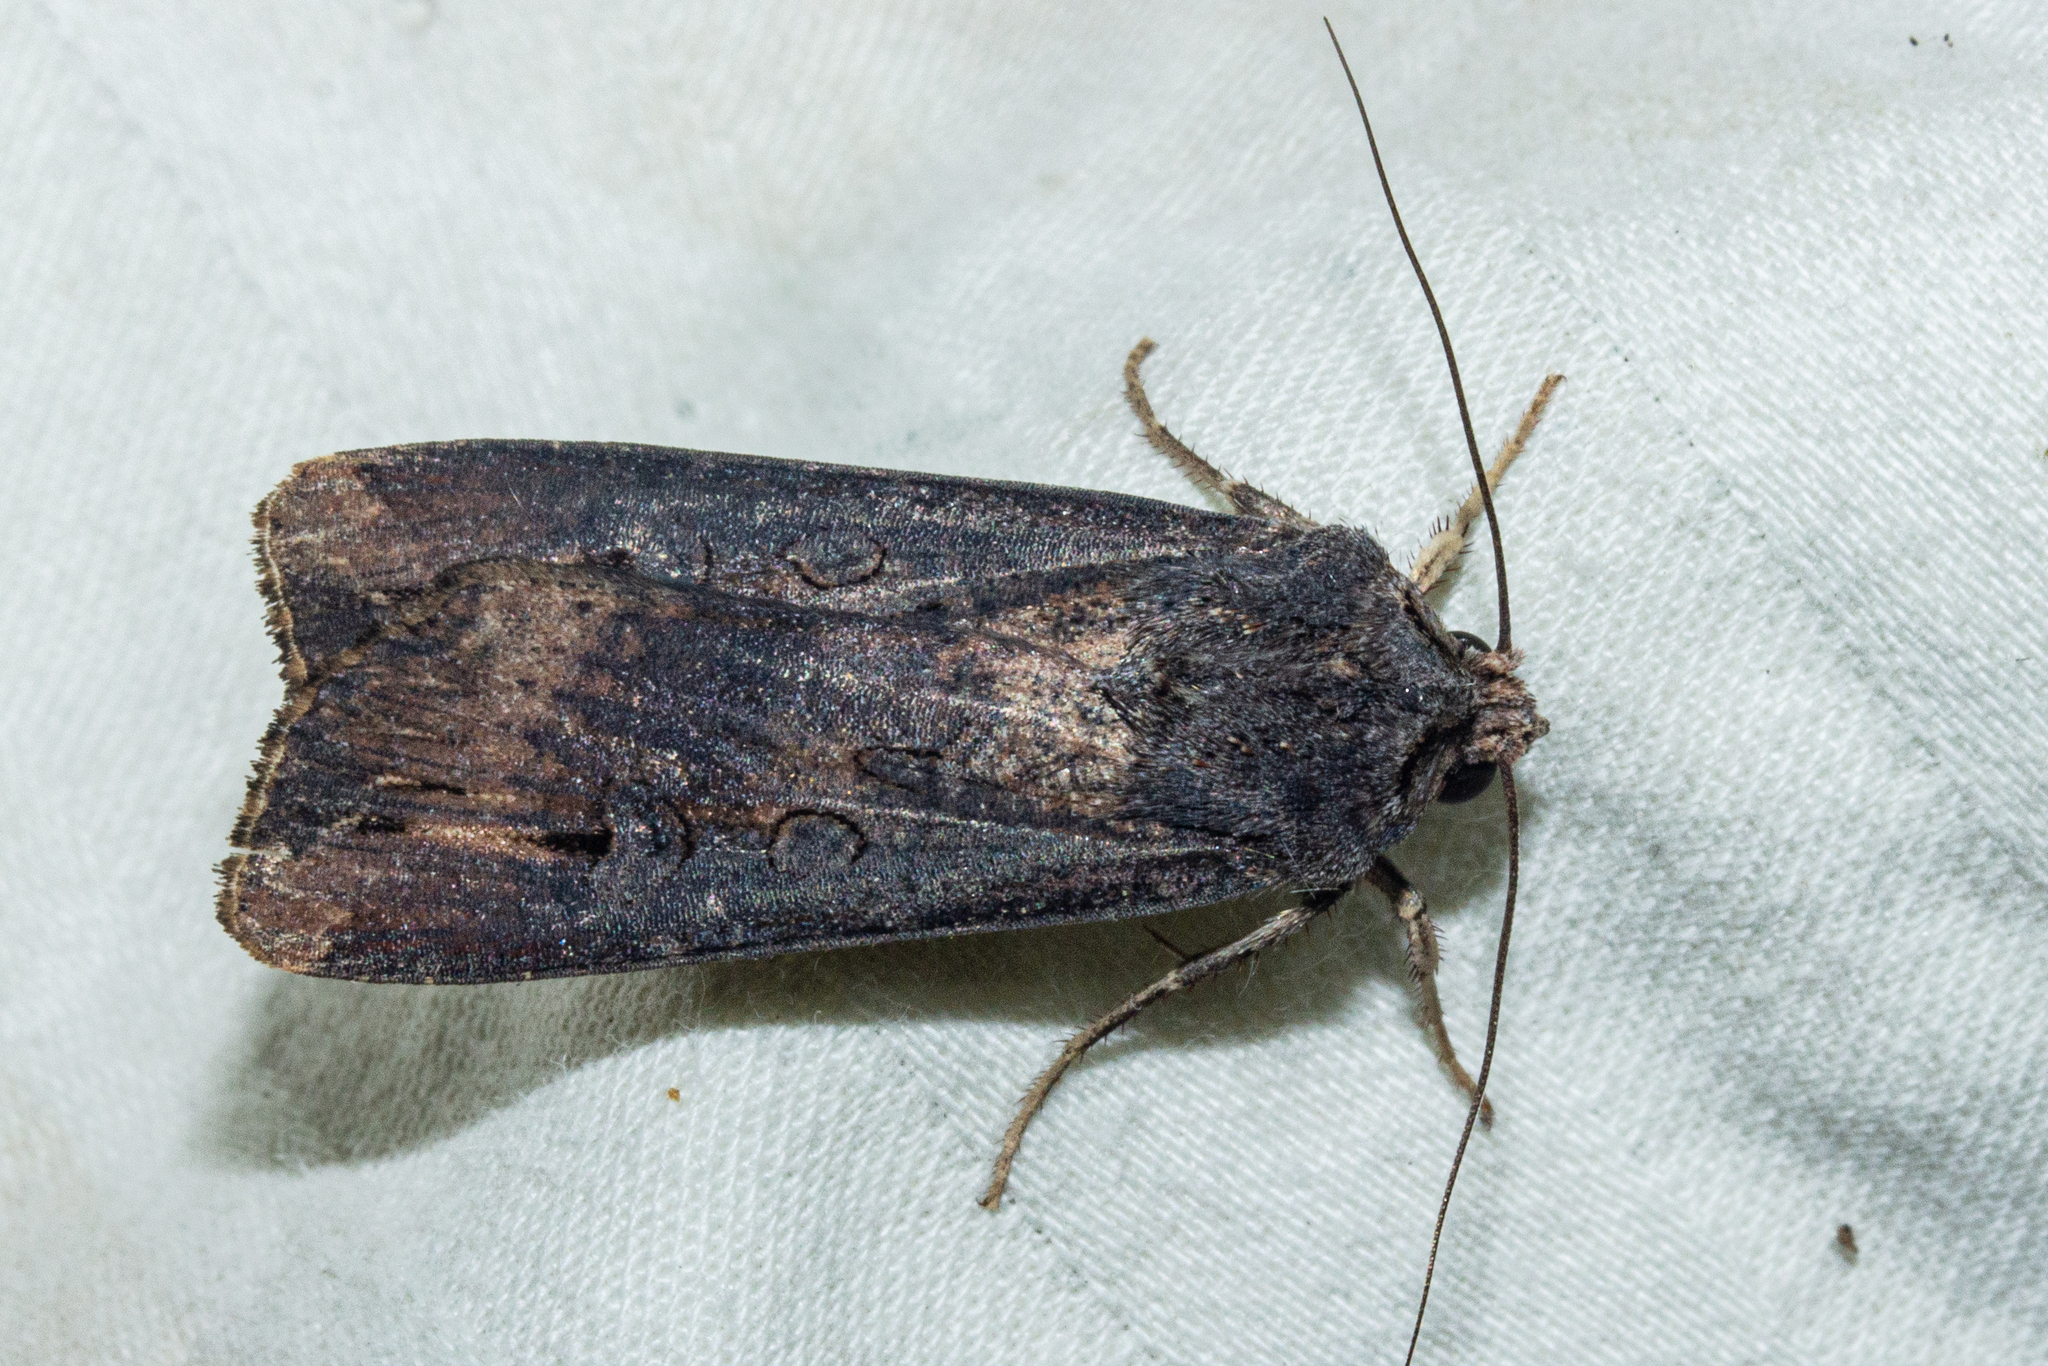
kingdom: Animalia
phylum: Arthropoda
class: Insecta
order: Lepidoptera
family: Noctuidae
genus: Agrotis
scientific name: Agrotis ipsilon
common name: Dark sword-grass
